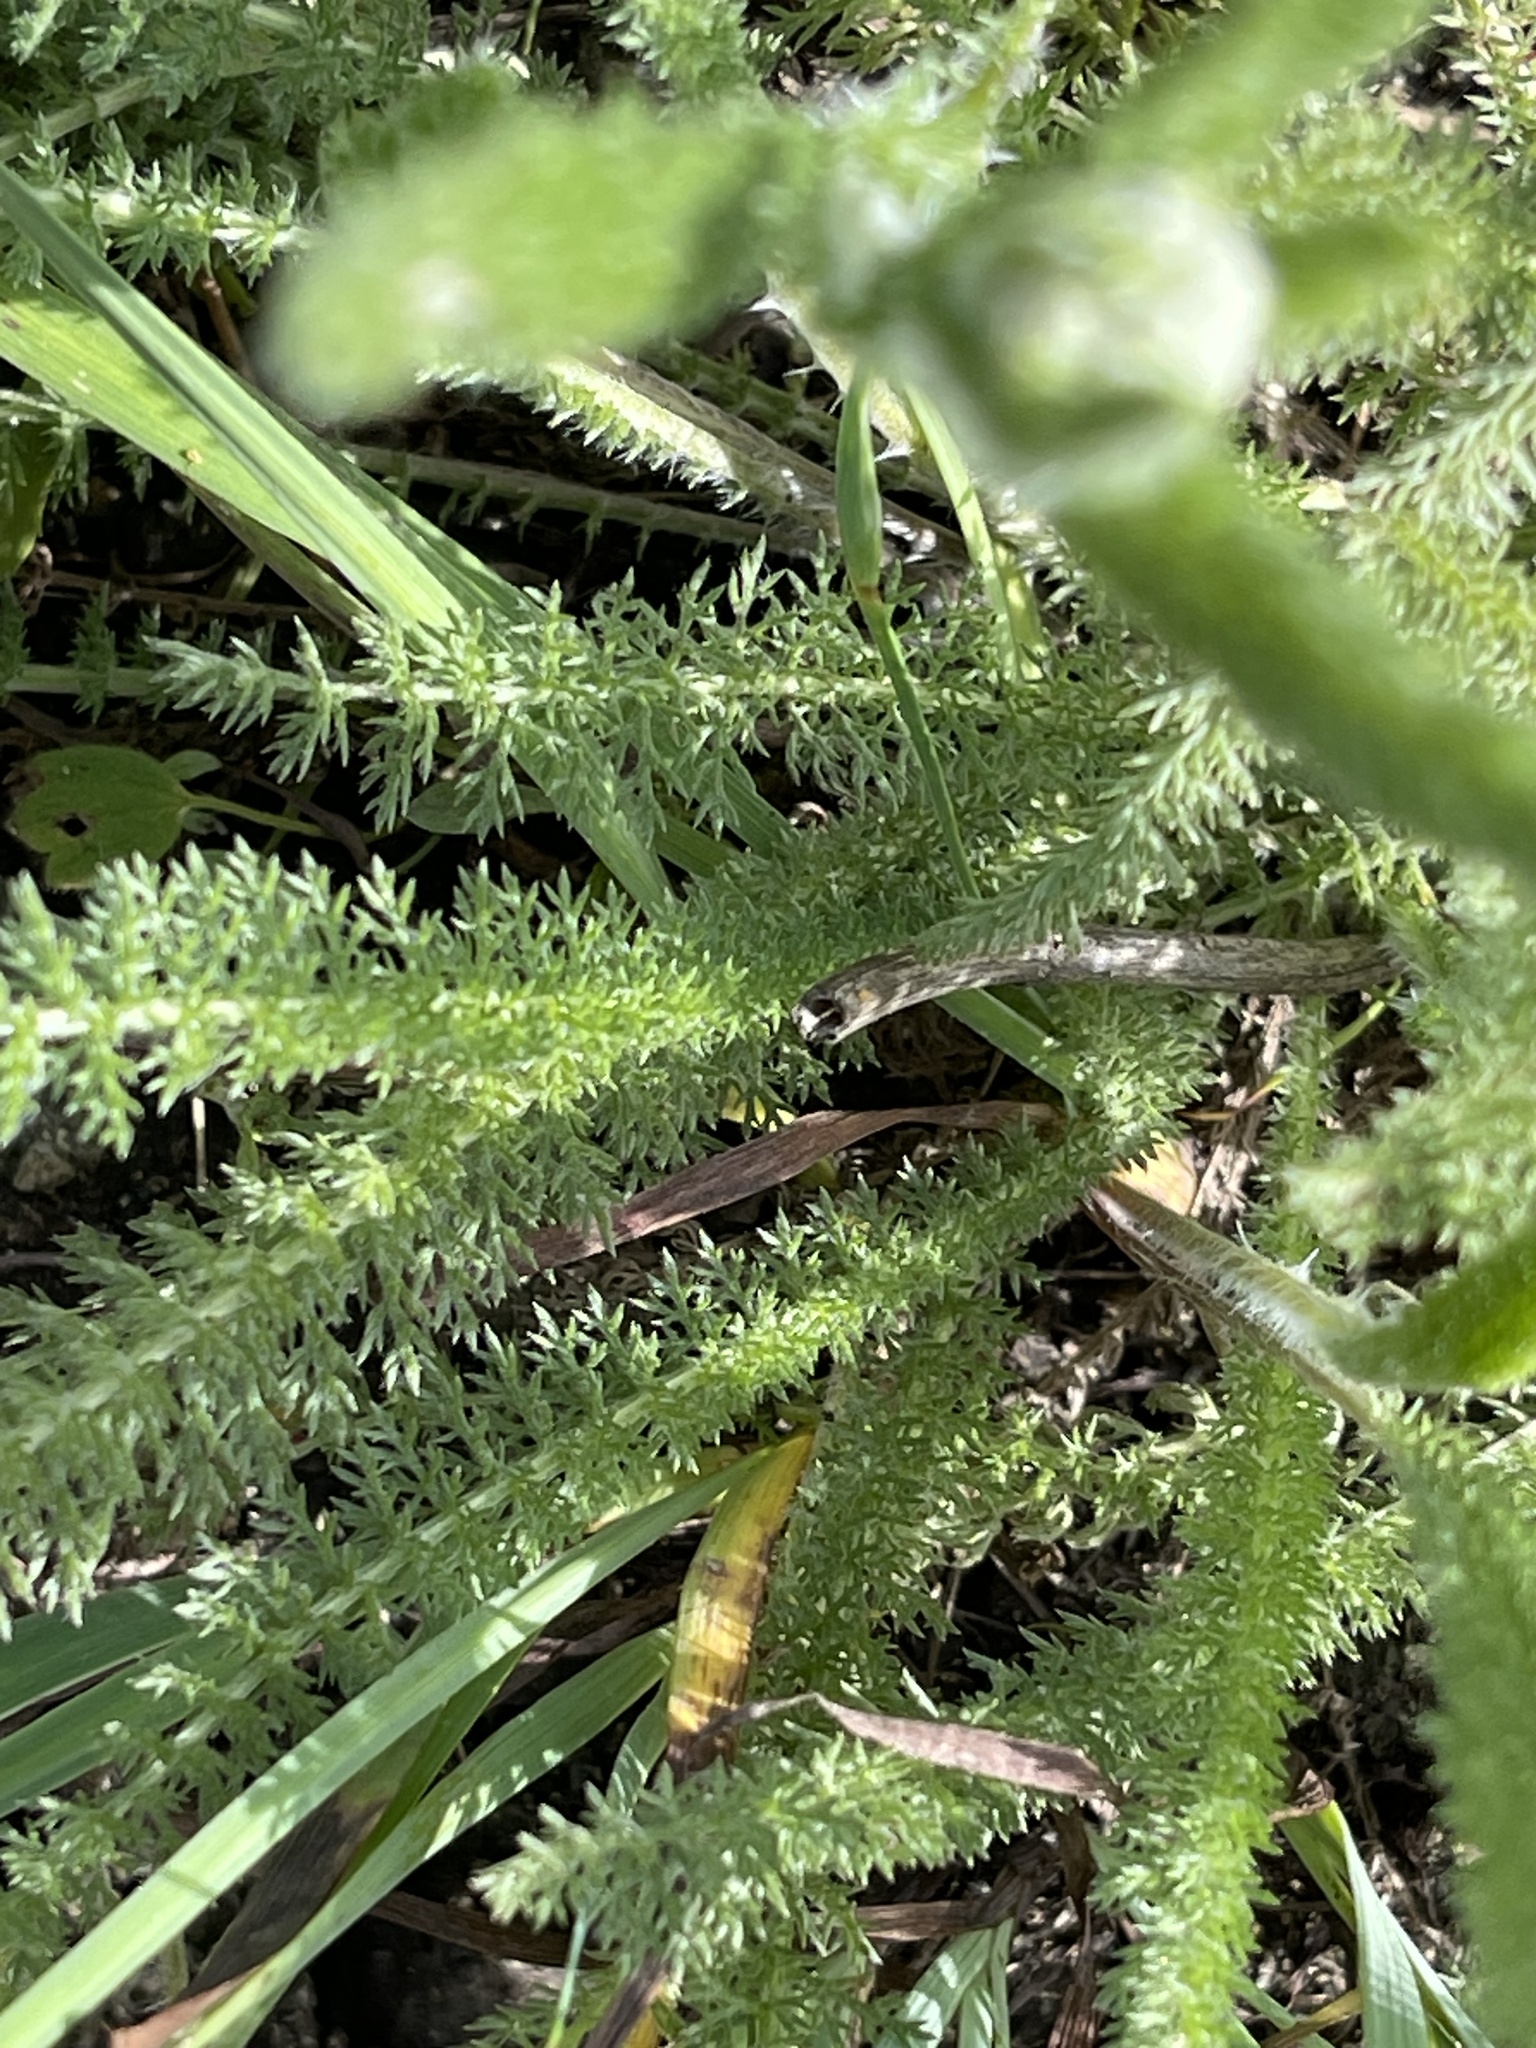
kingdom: Plantae
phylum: Tracheophyta
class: Magnoliopsida
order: Asterales
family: Asteraceae
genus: Achillea
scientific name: Achillea millefolium
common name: Yarrow
